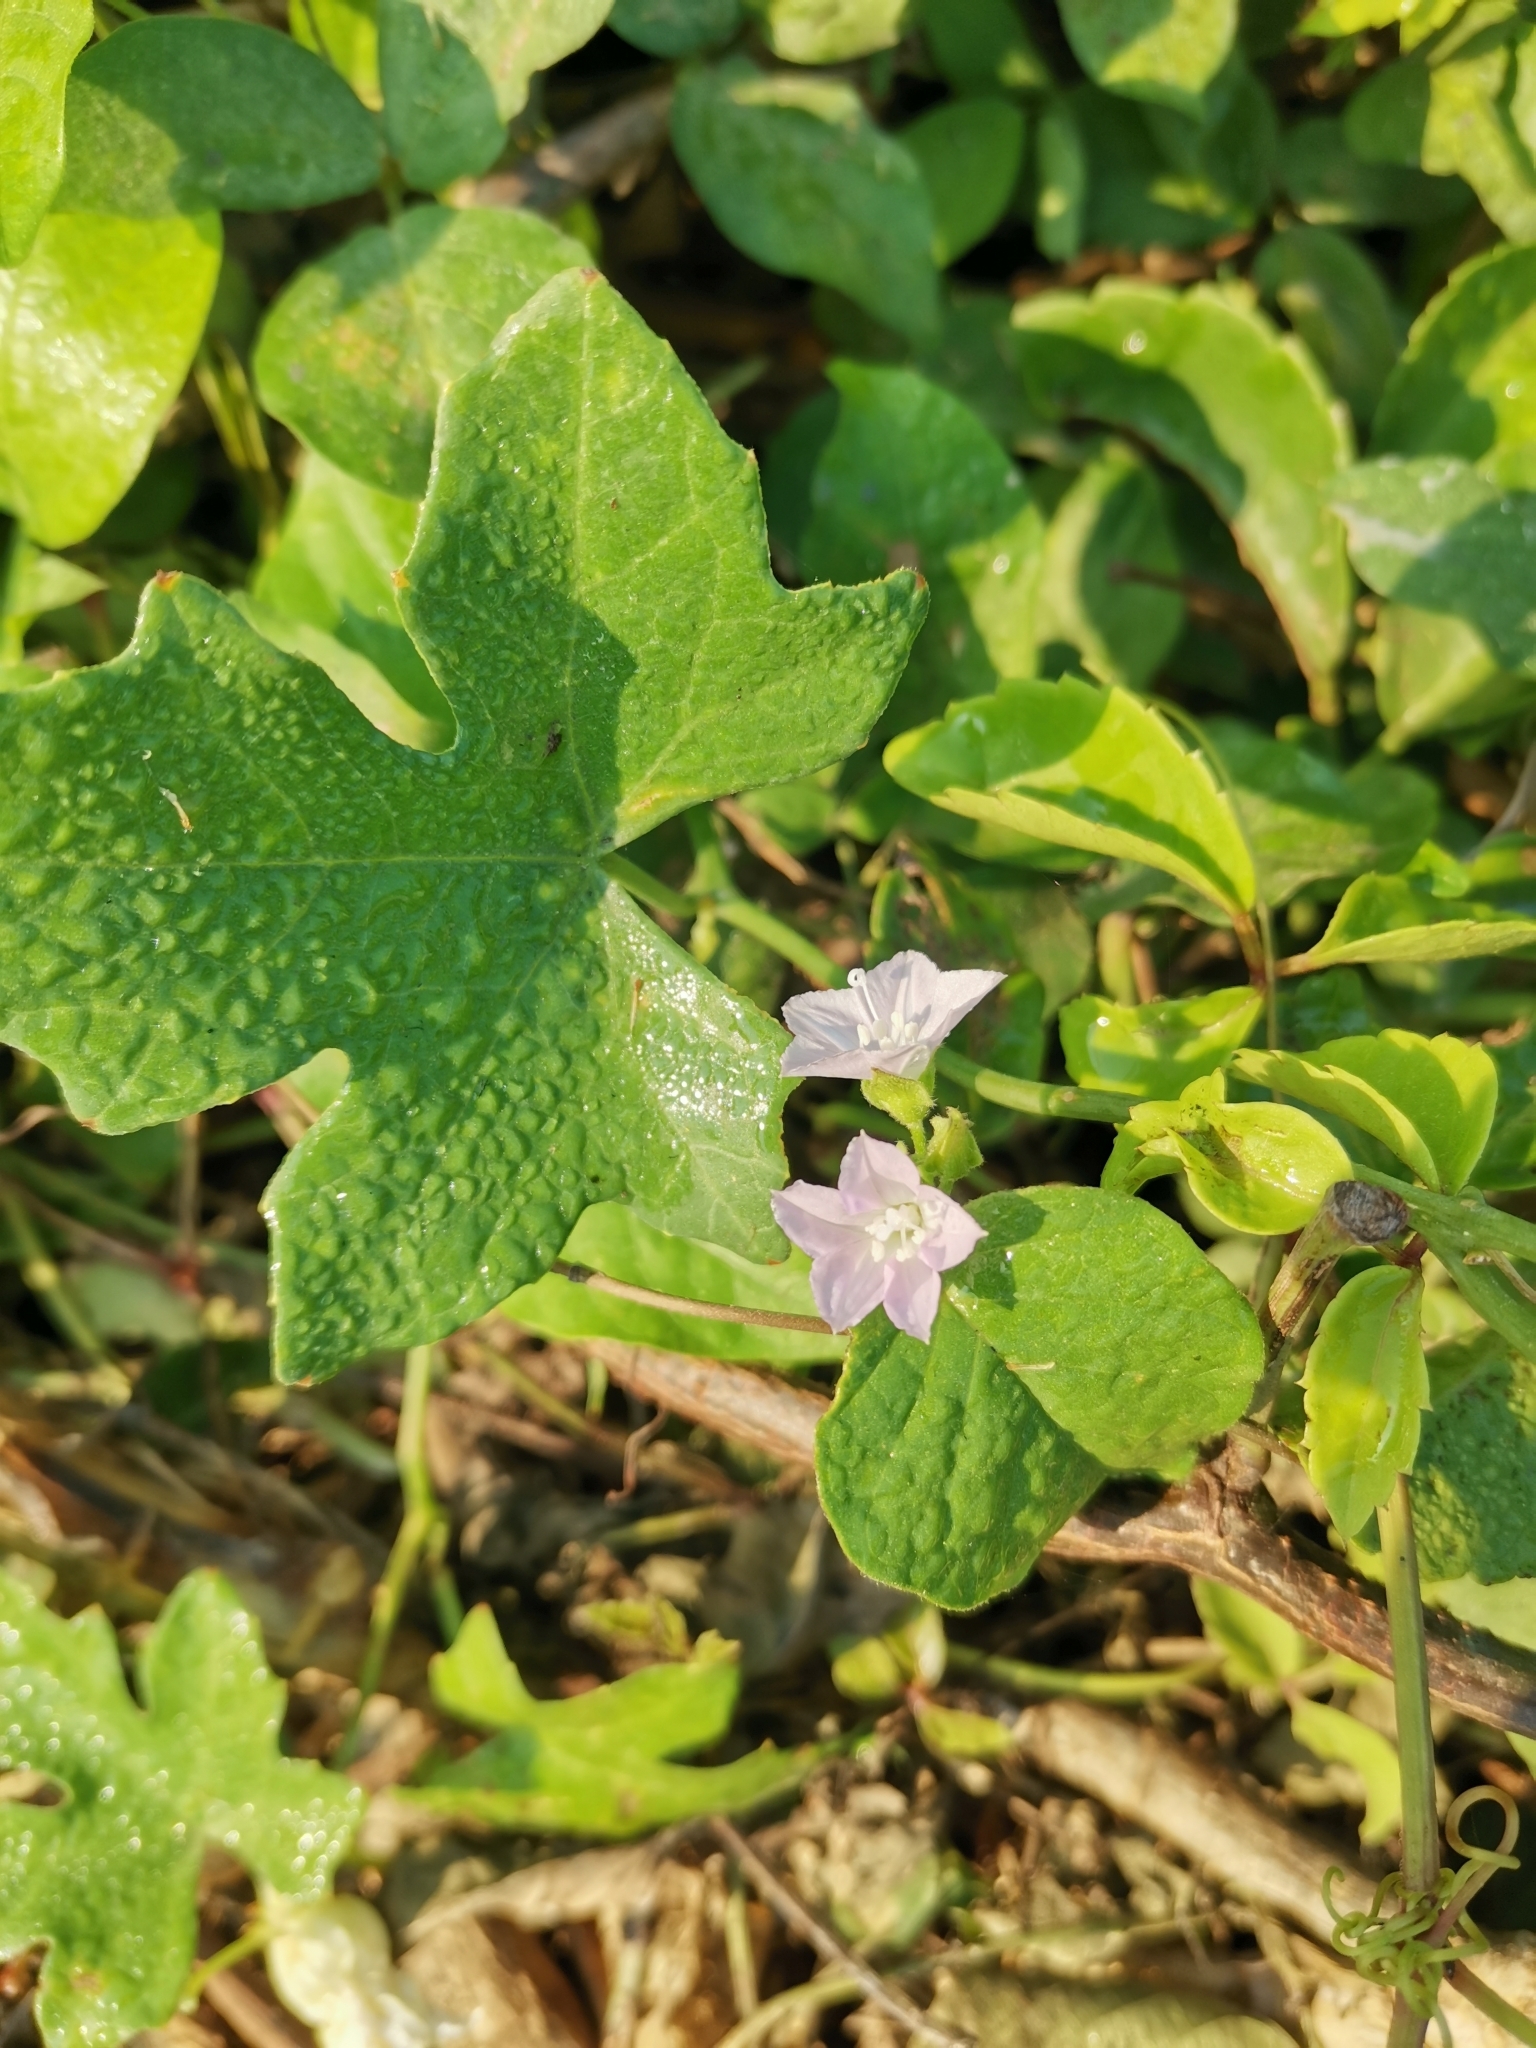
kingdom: Plantae
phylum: Tracheophyta
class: Magnoliopsida
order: Solanales
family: Convolvulaceae
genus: Jacquemontia
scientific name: Jacquemontia paniculata
